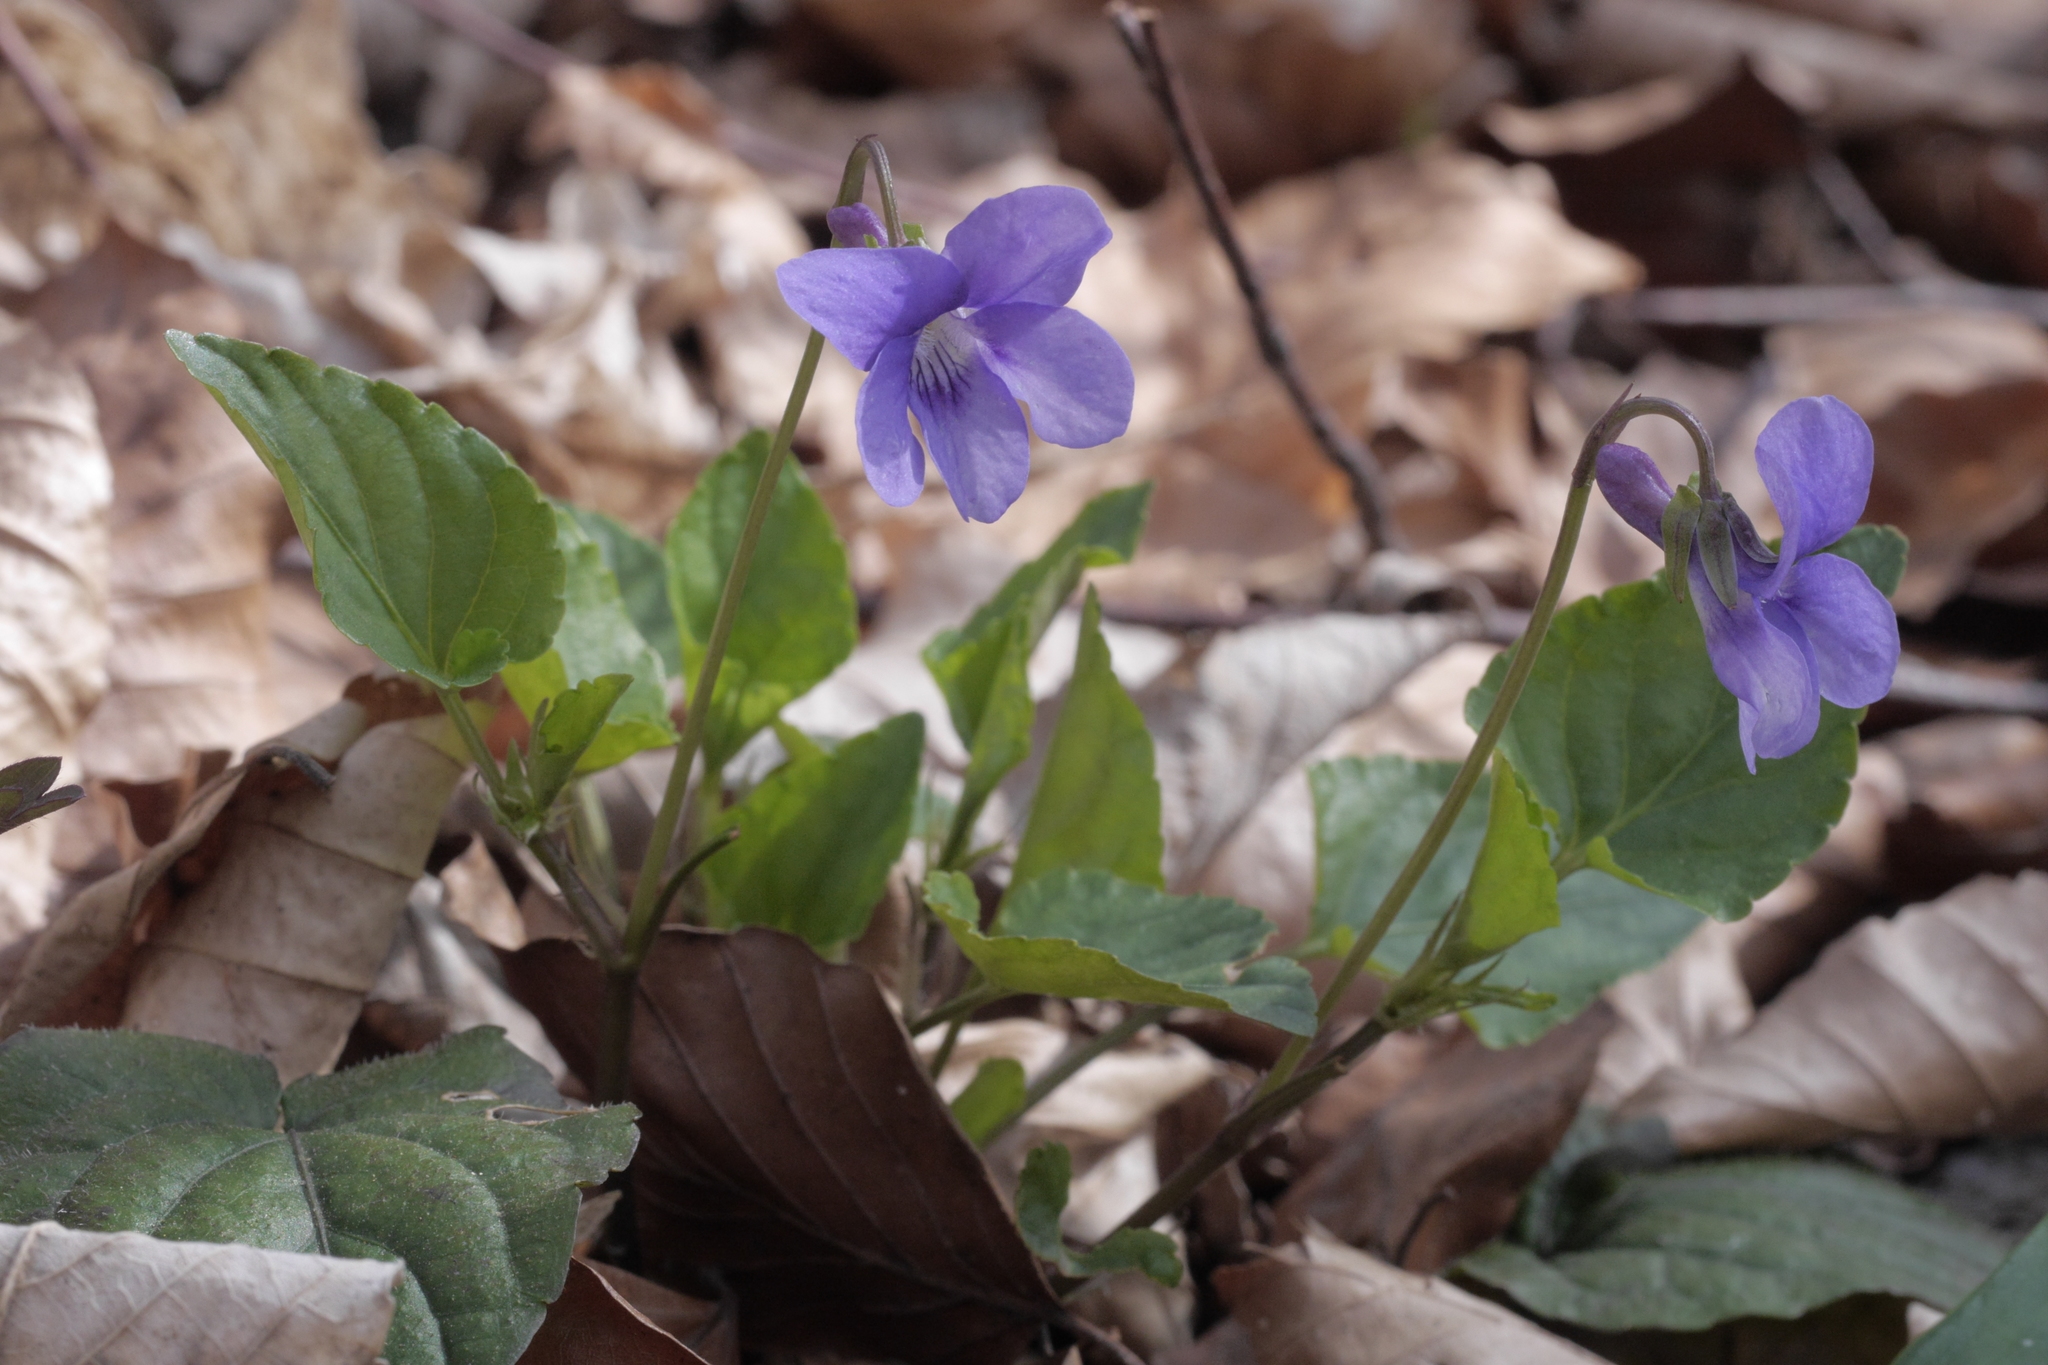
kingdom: Plantae
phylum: Tracheophyta
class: Magnoliopsida
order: Malpighiales
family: Violaceae
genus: Viola
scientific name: Viola reichenbachiana
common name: Early dog-violet
